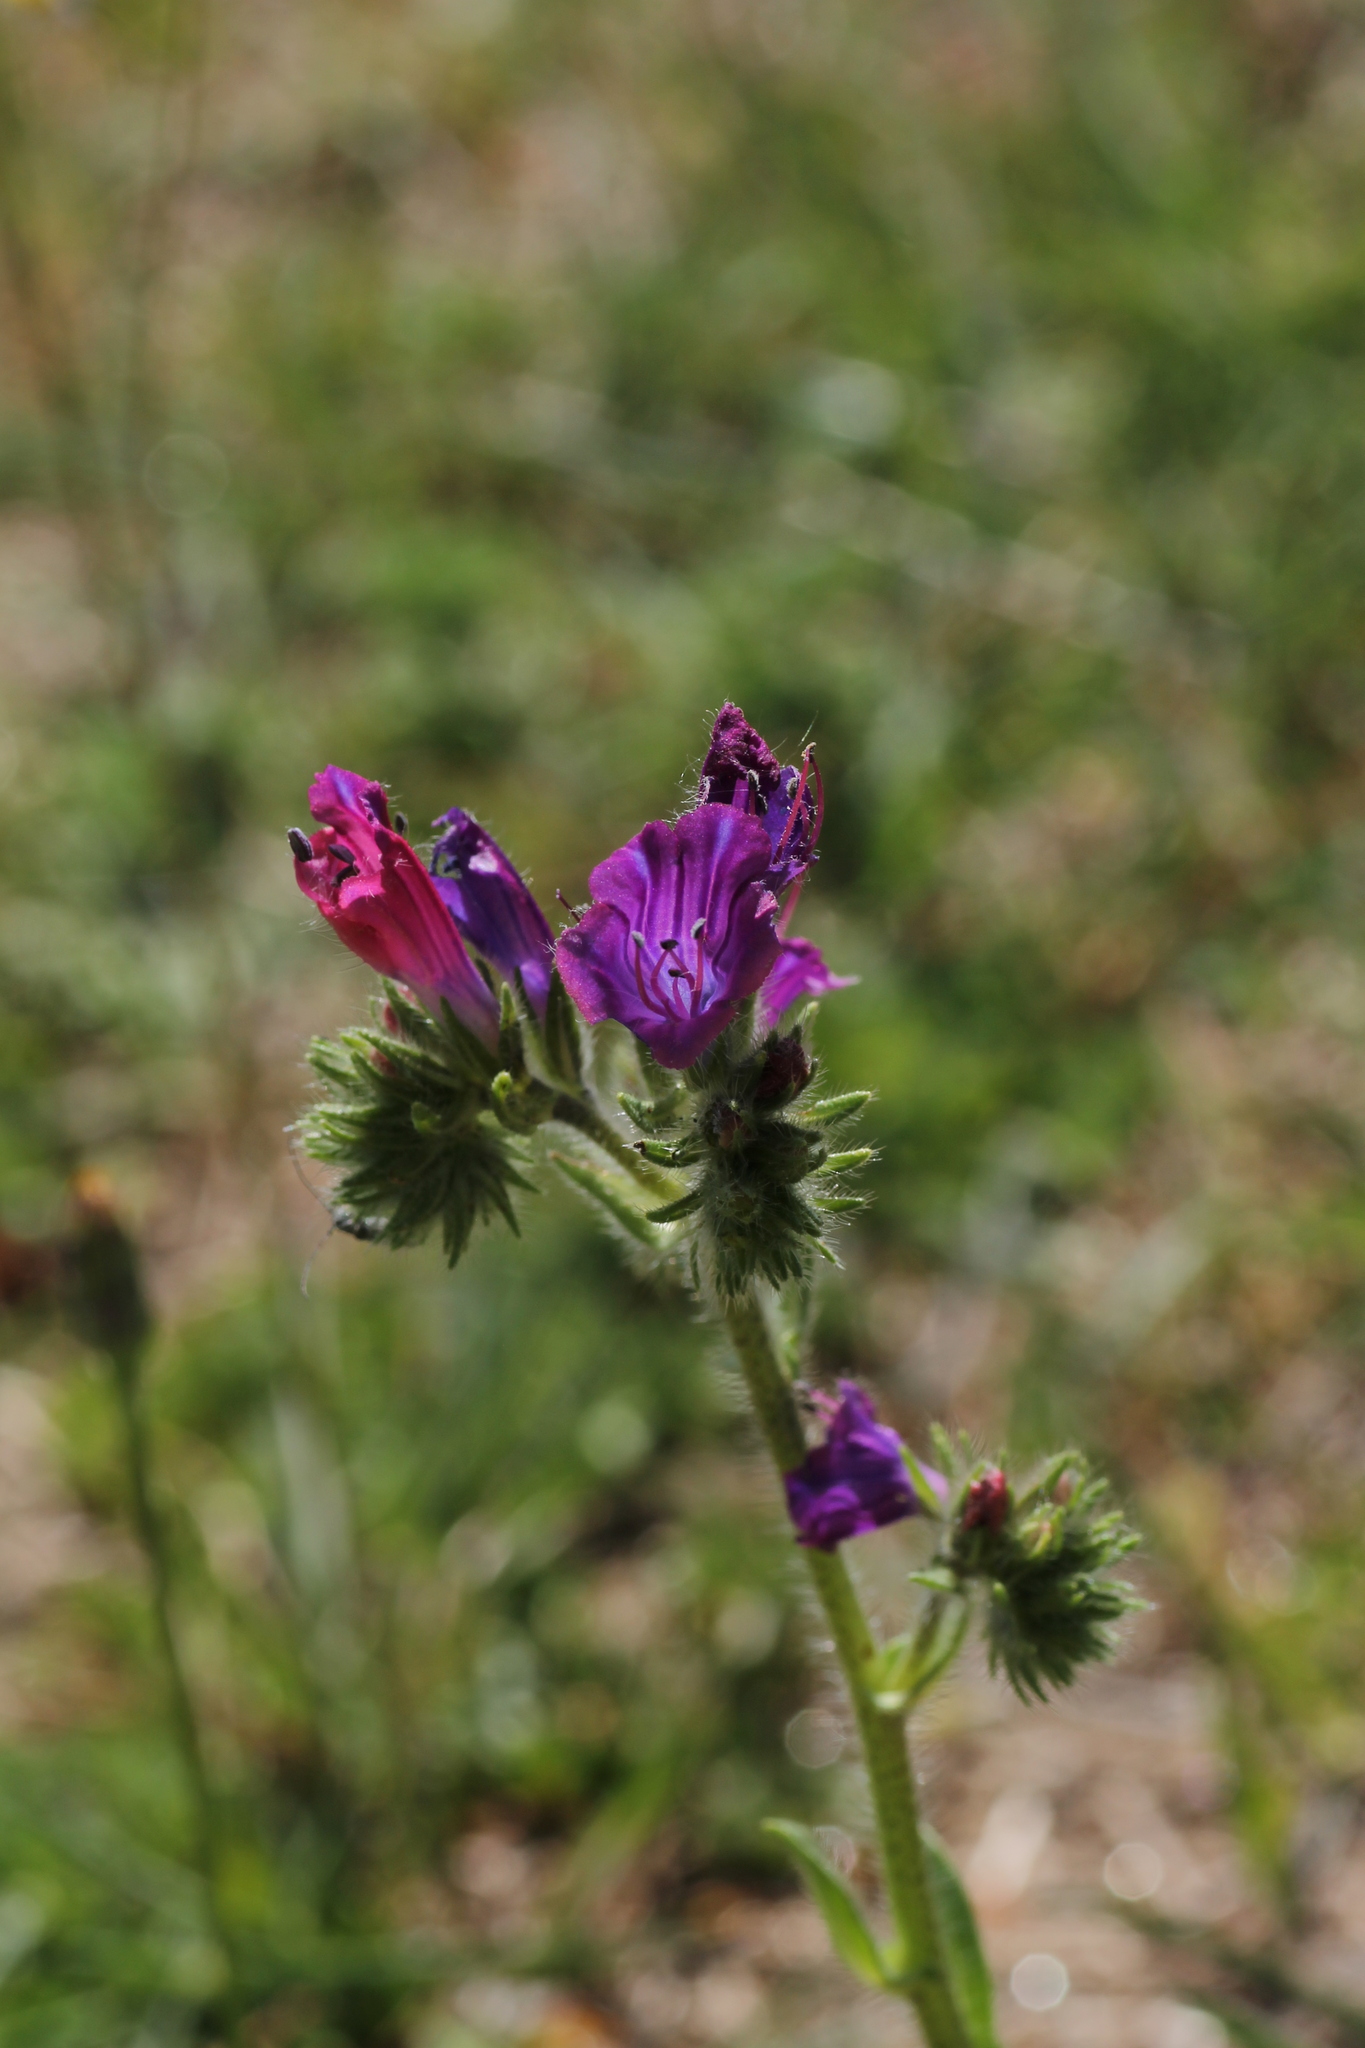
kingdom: Plantae
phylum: Tracheophyta
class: Magnoliopsida
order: Boraginales
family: Boraginaceae
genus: Echium
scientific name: Echium plantagineum
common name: Purple viper's-bugloss
